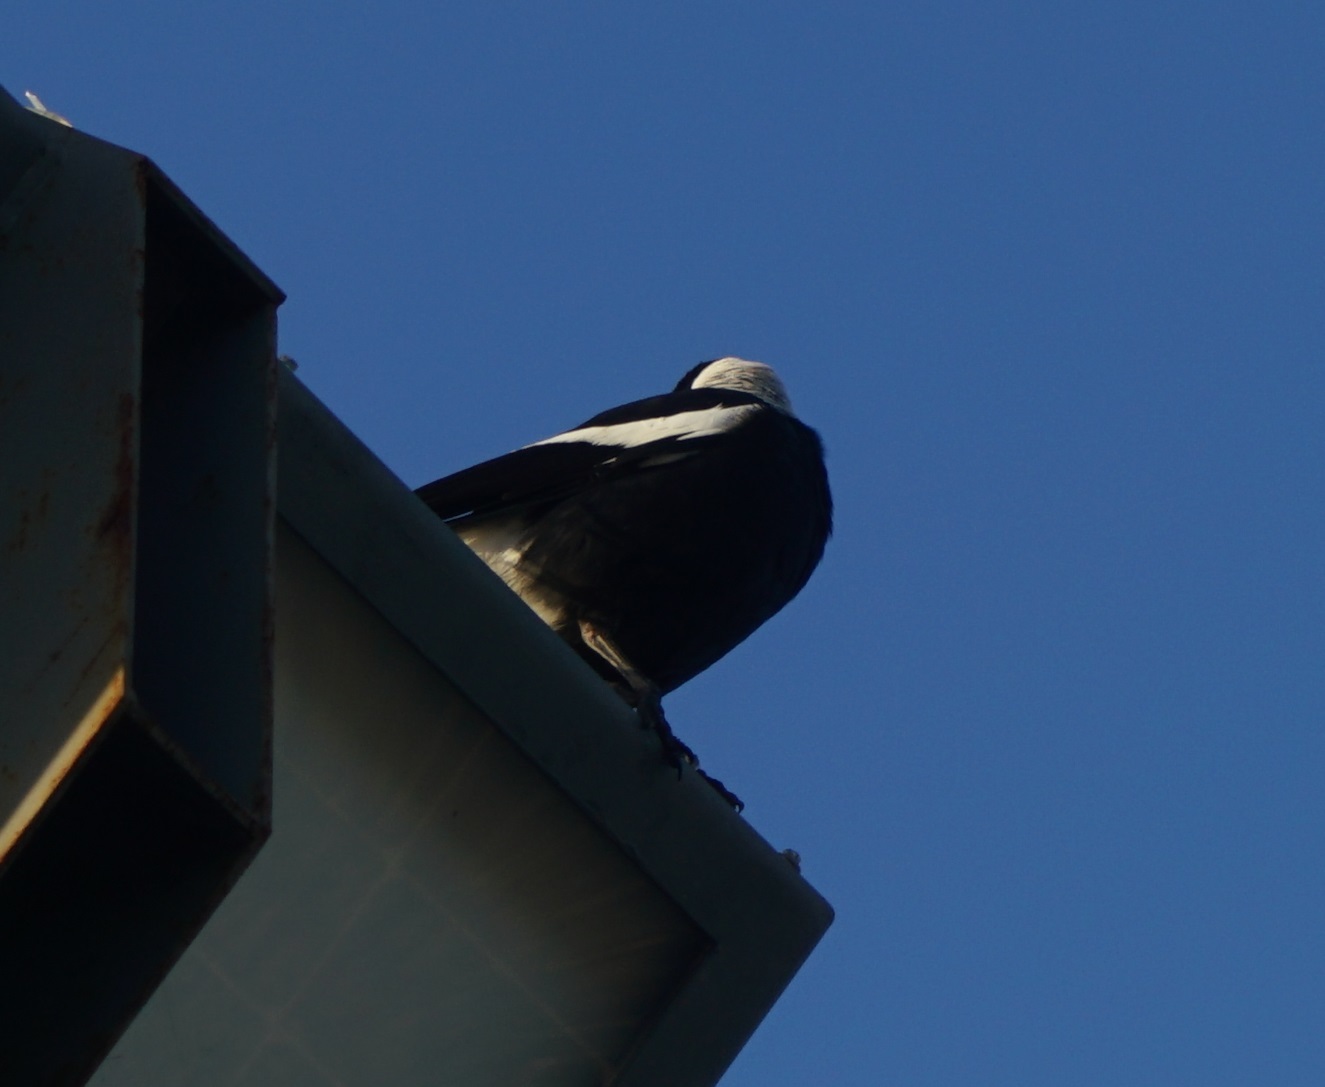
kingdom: Animalia
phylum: Chordata
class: Aves
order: Passeriformes
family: Cracticidae
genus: Gymnorhina
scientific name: Gymnorhina tibicen
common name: Australian magpie
